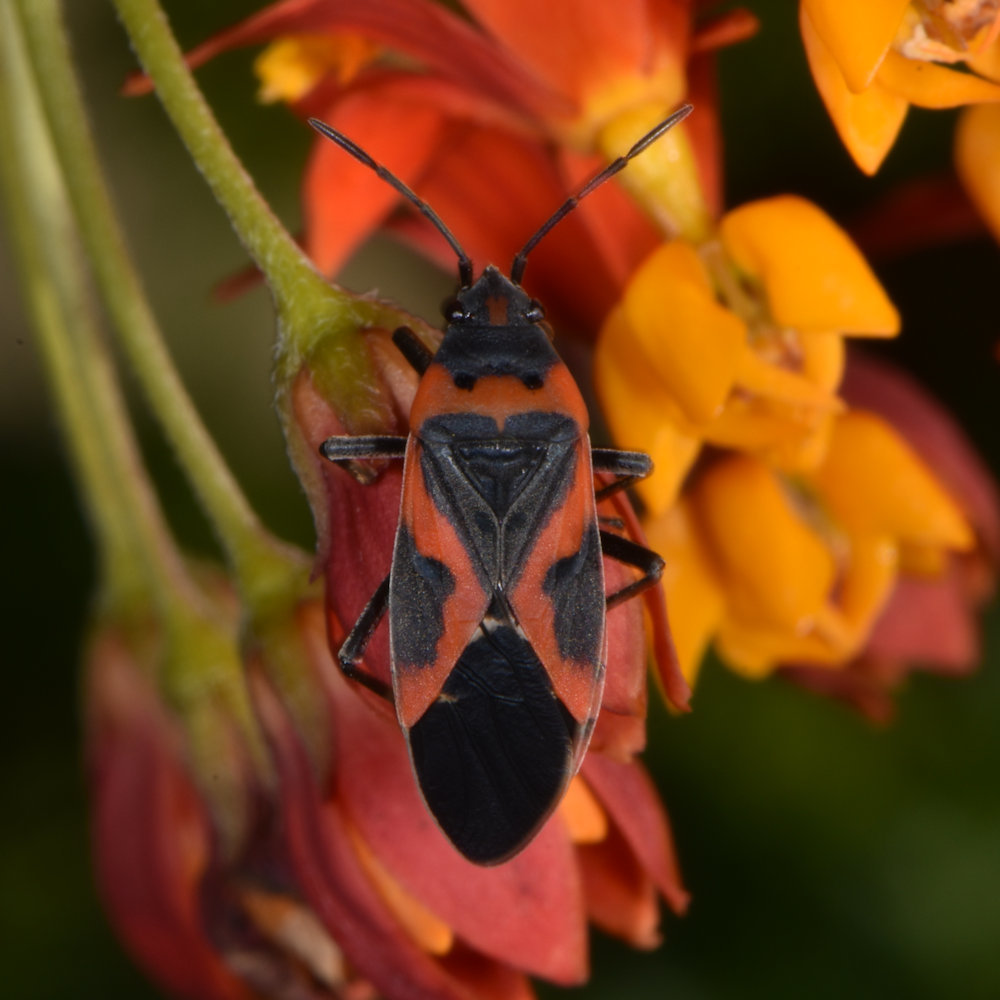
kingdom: Animalia
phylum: Arthropoda
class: Insecta
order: Hemiptera
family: Lygaeidae
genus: Lygaeus
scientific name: Lygaeus kalmii
